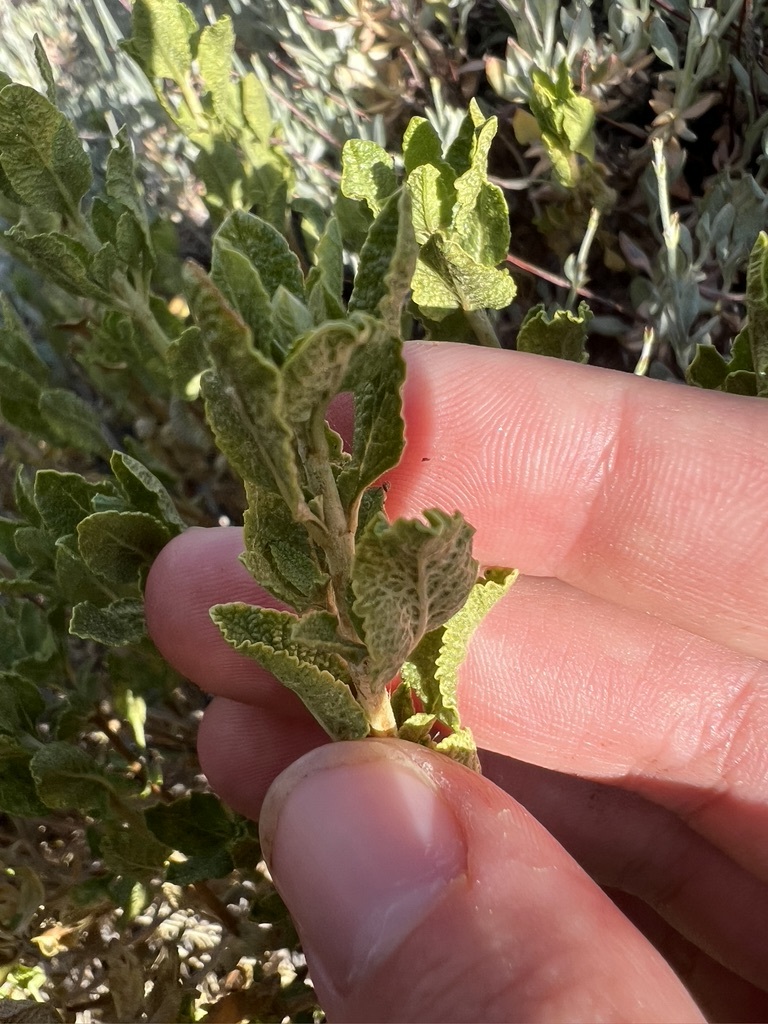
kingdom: Plantae
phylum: Tracheophyta
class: Magnoliopsida
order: Lamiales
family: Lamiaceae
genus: Salvia
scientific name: Salvia mohavensis
